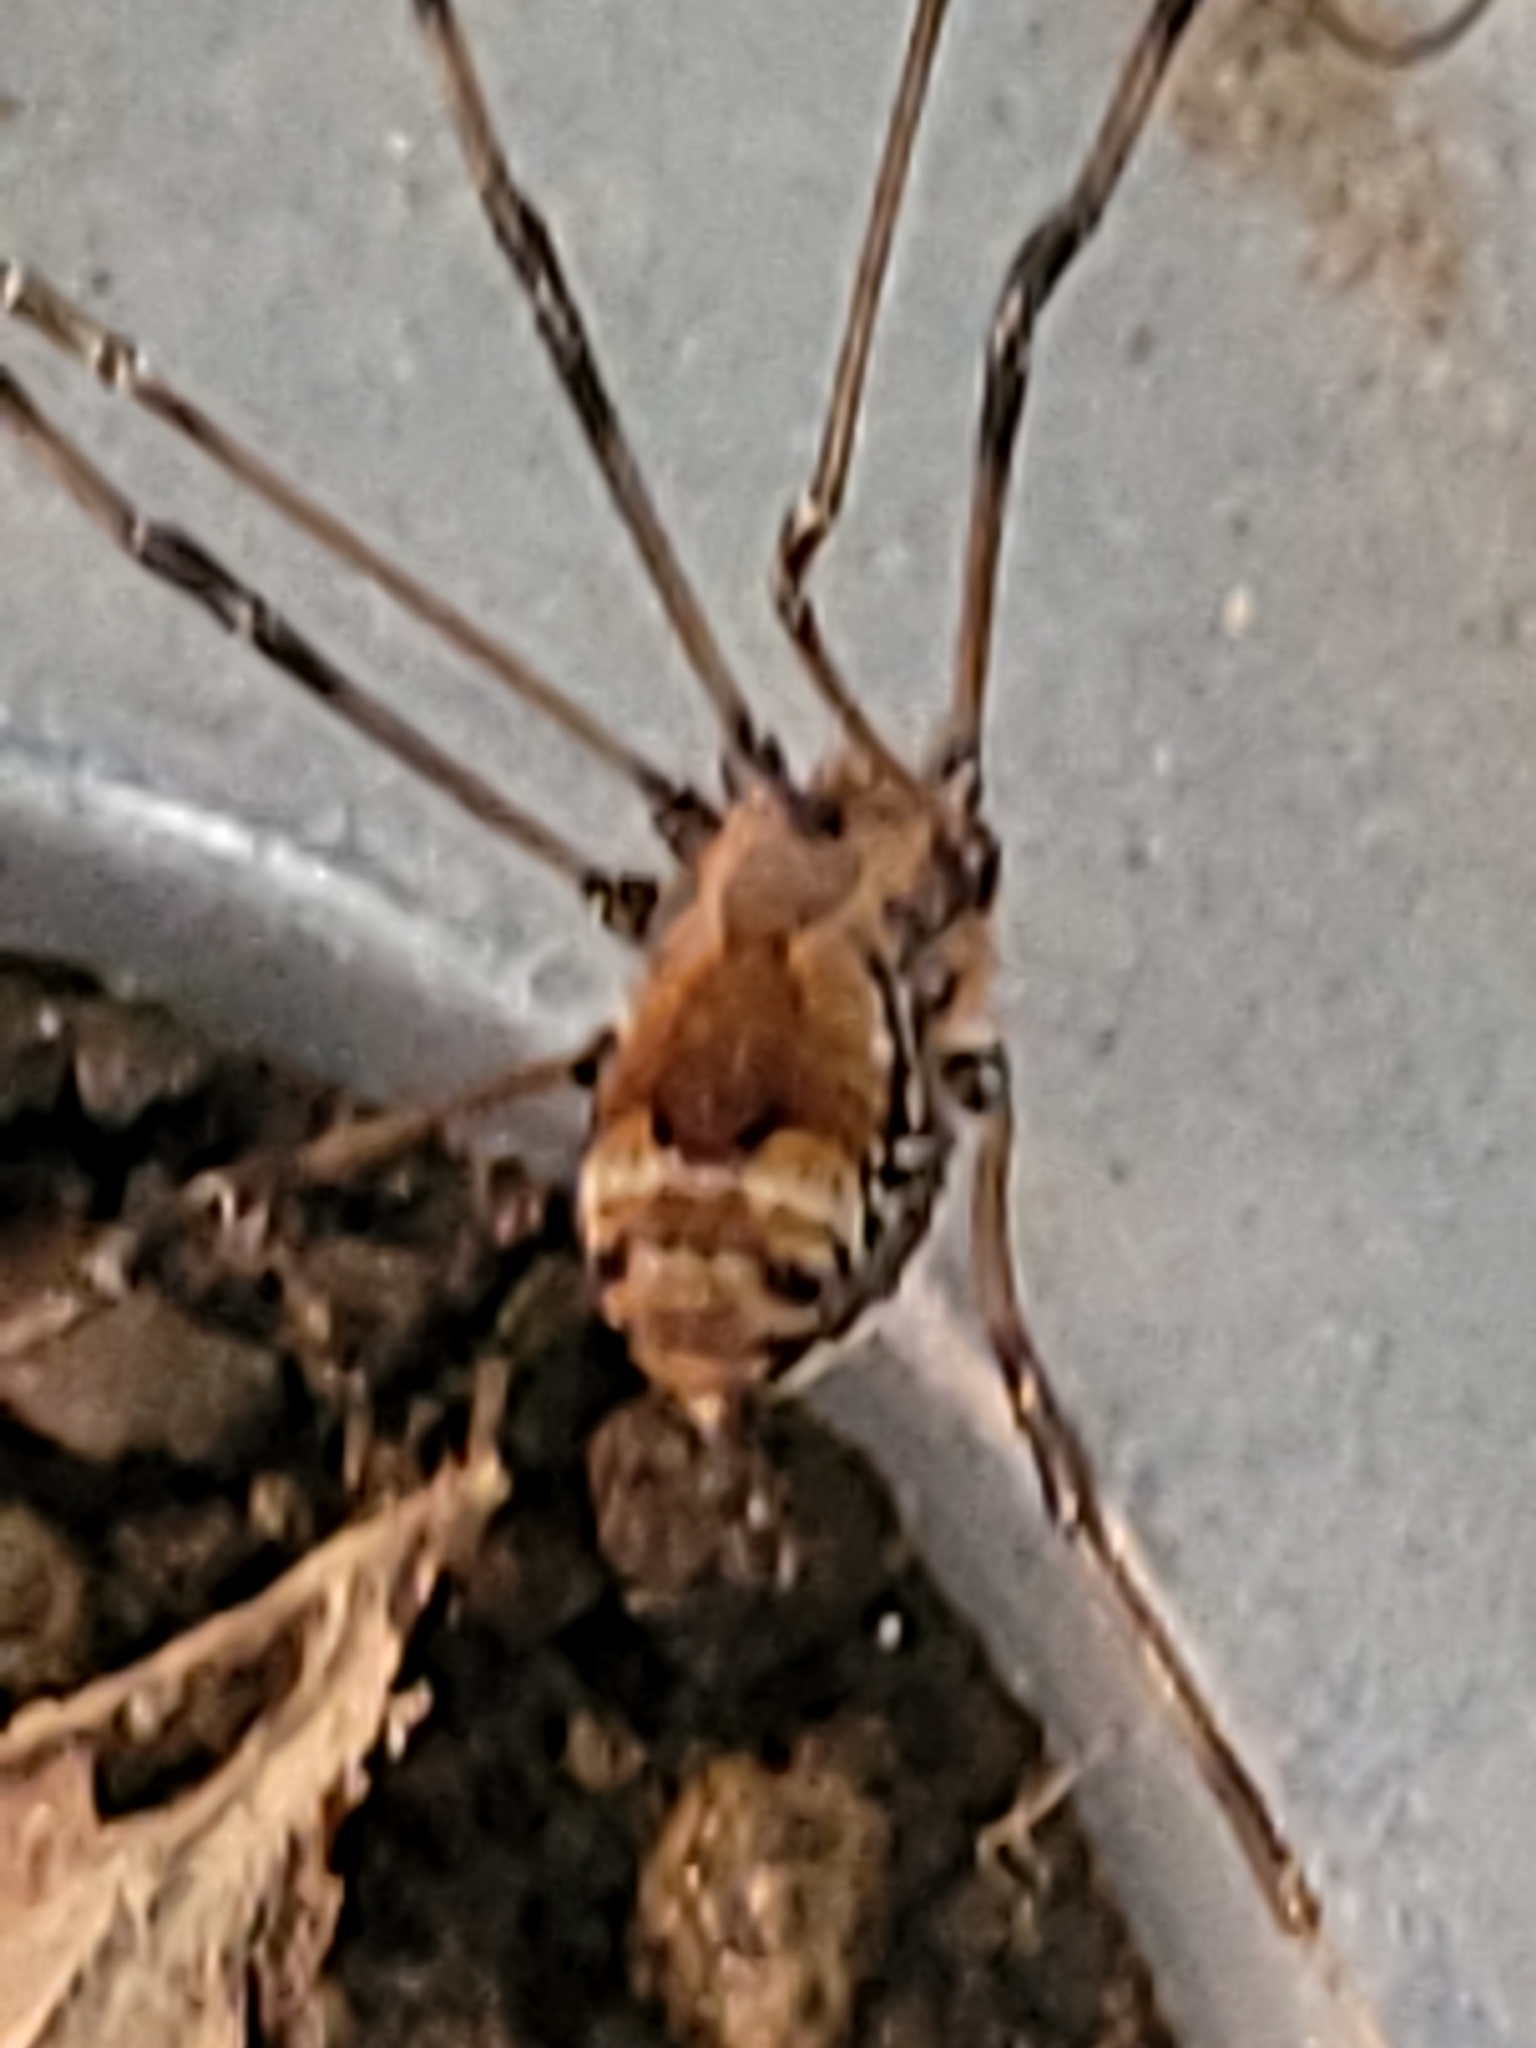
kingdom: Animalia
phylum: Arthropoda
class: Arachnida
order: Opiliones
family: Sclerosomatidae
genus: Leiobunum
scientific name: Leiobunum verrucosum
